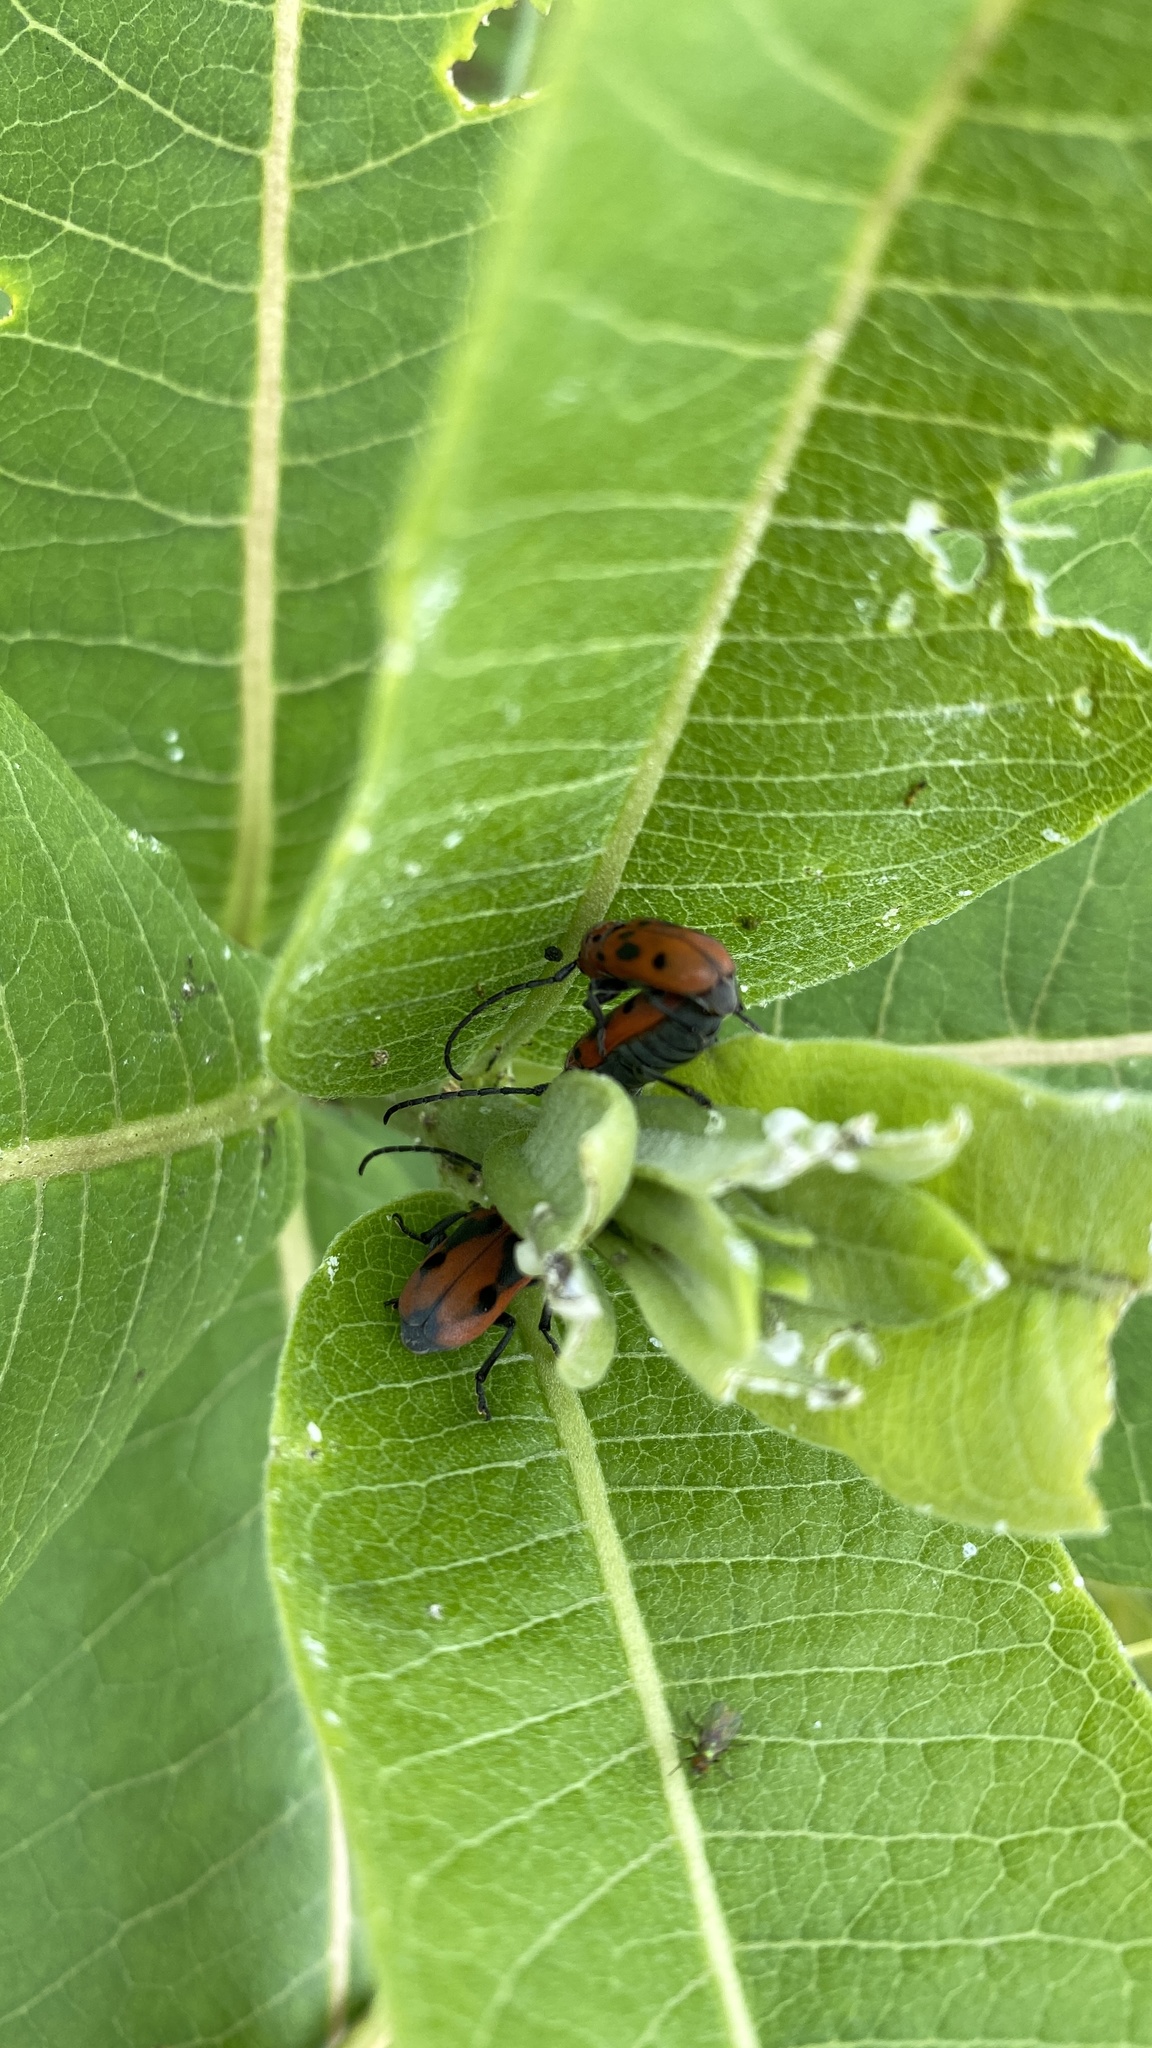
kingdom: Animalia
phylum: Arthropoda
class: Insecta
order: Coleoptera
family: Cerambycidae
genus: Tetraopes
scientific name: Tetraopes tetrophthalmus
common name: Red milkweed beetle
